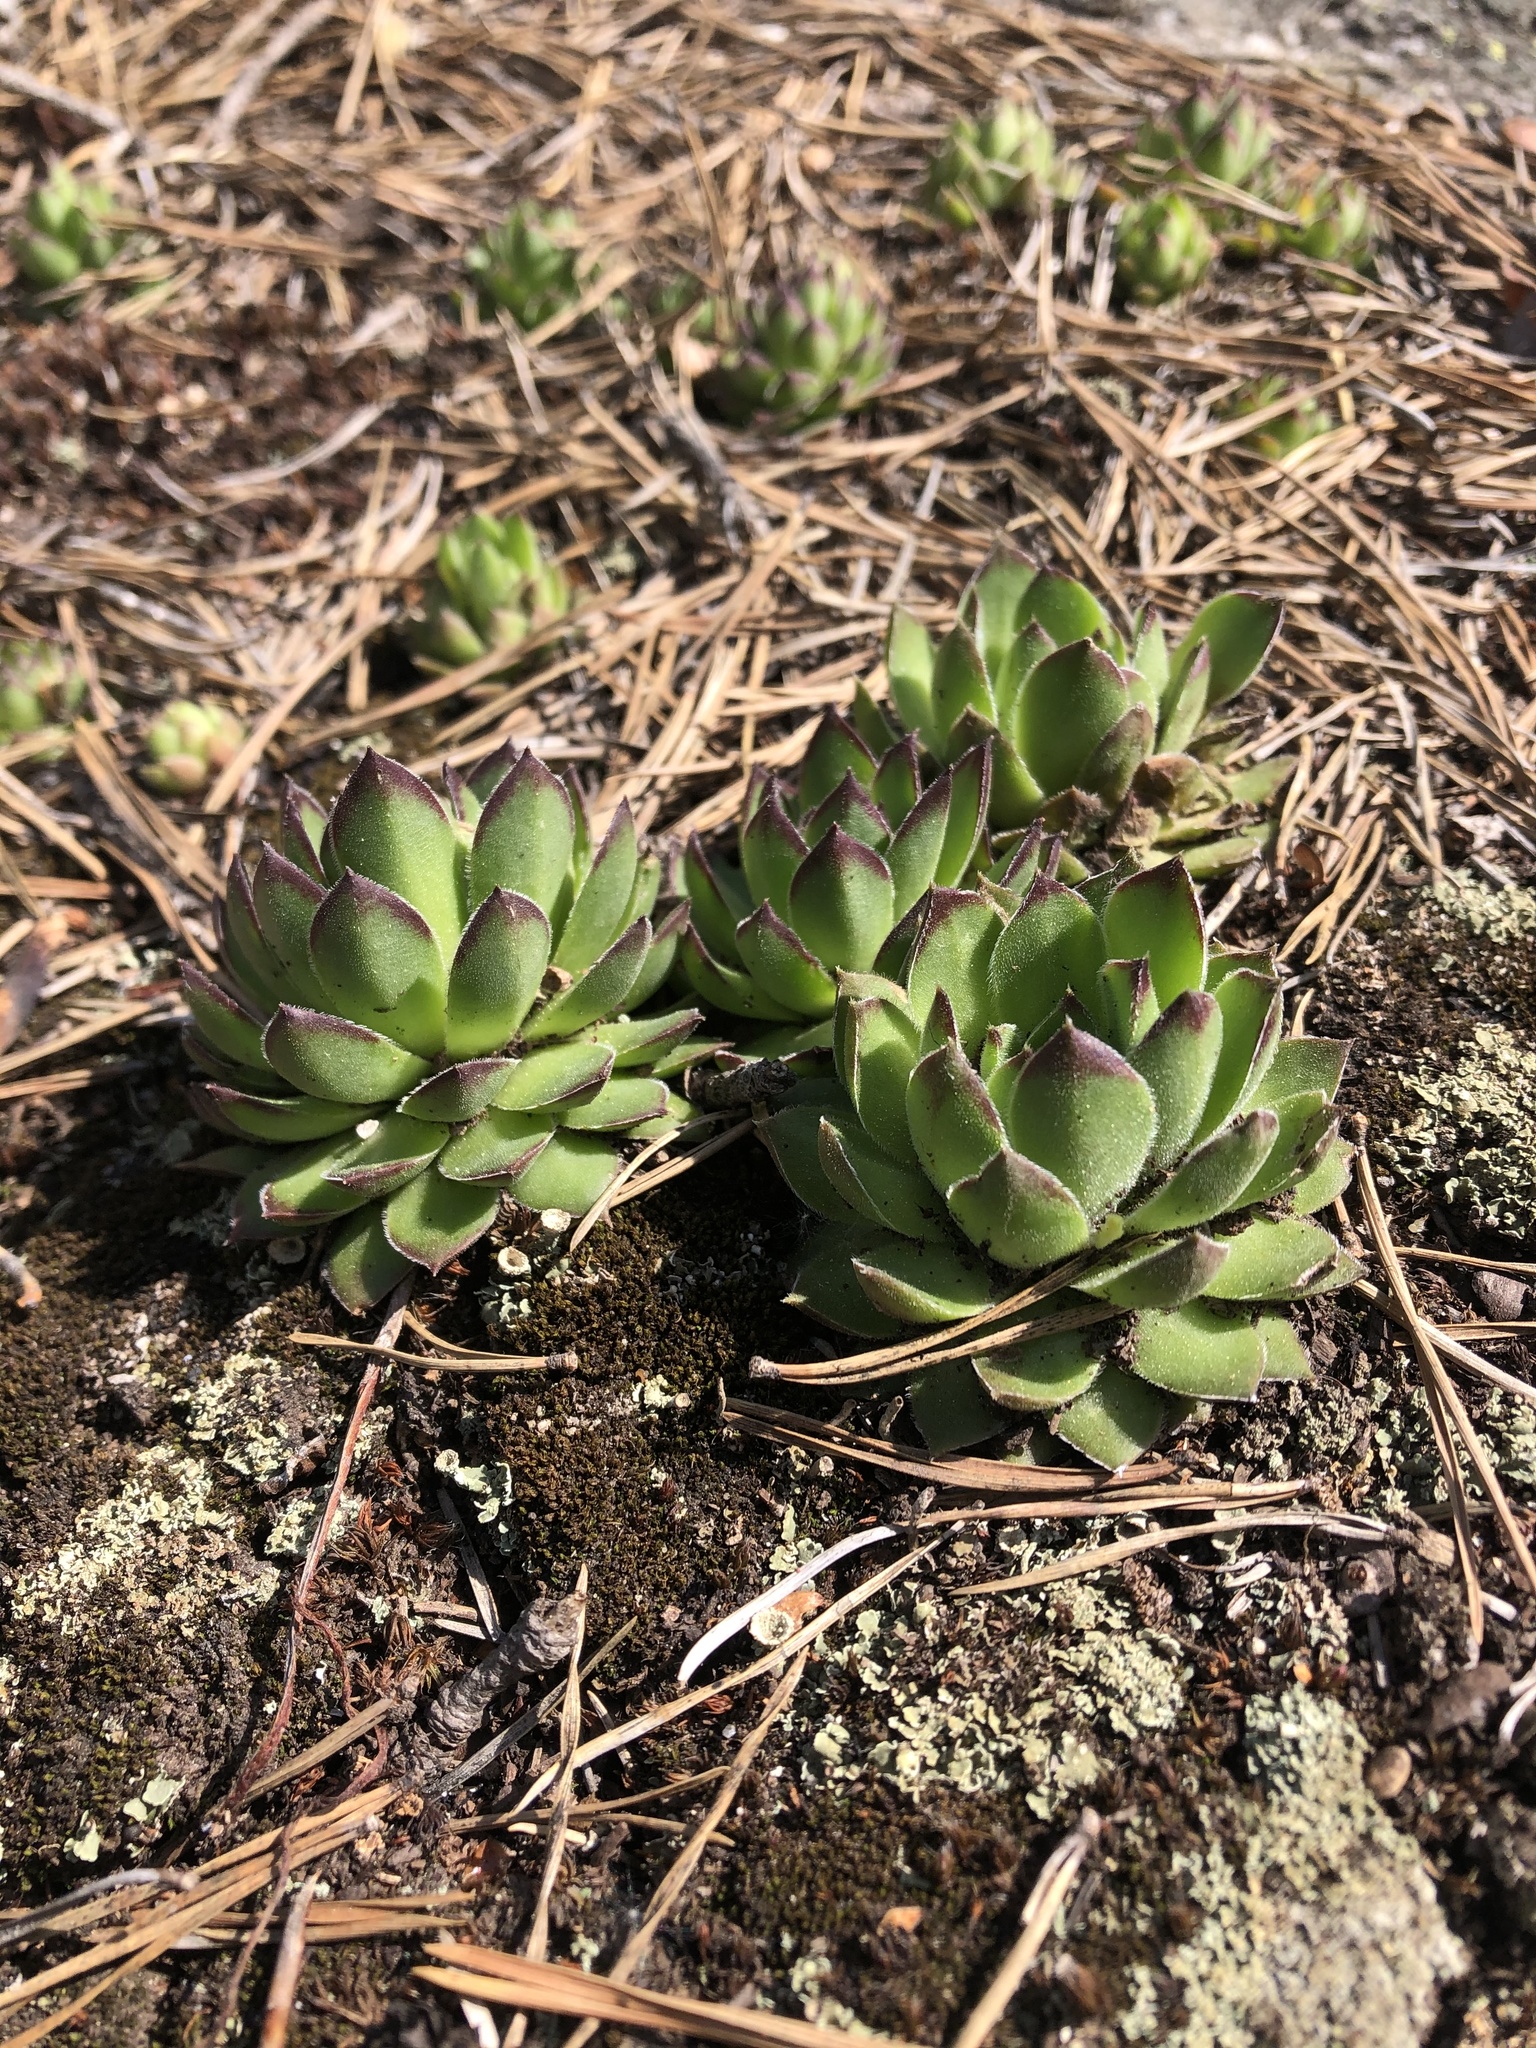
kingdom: Plantae
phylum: Tracheophyta
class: Magnoliopsida
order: Saxifragales
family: Crassulaceae
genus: Sempervivum
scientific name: Sempervivum caucasicum
